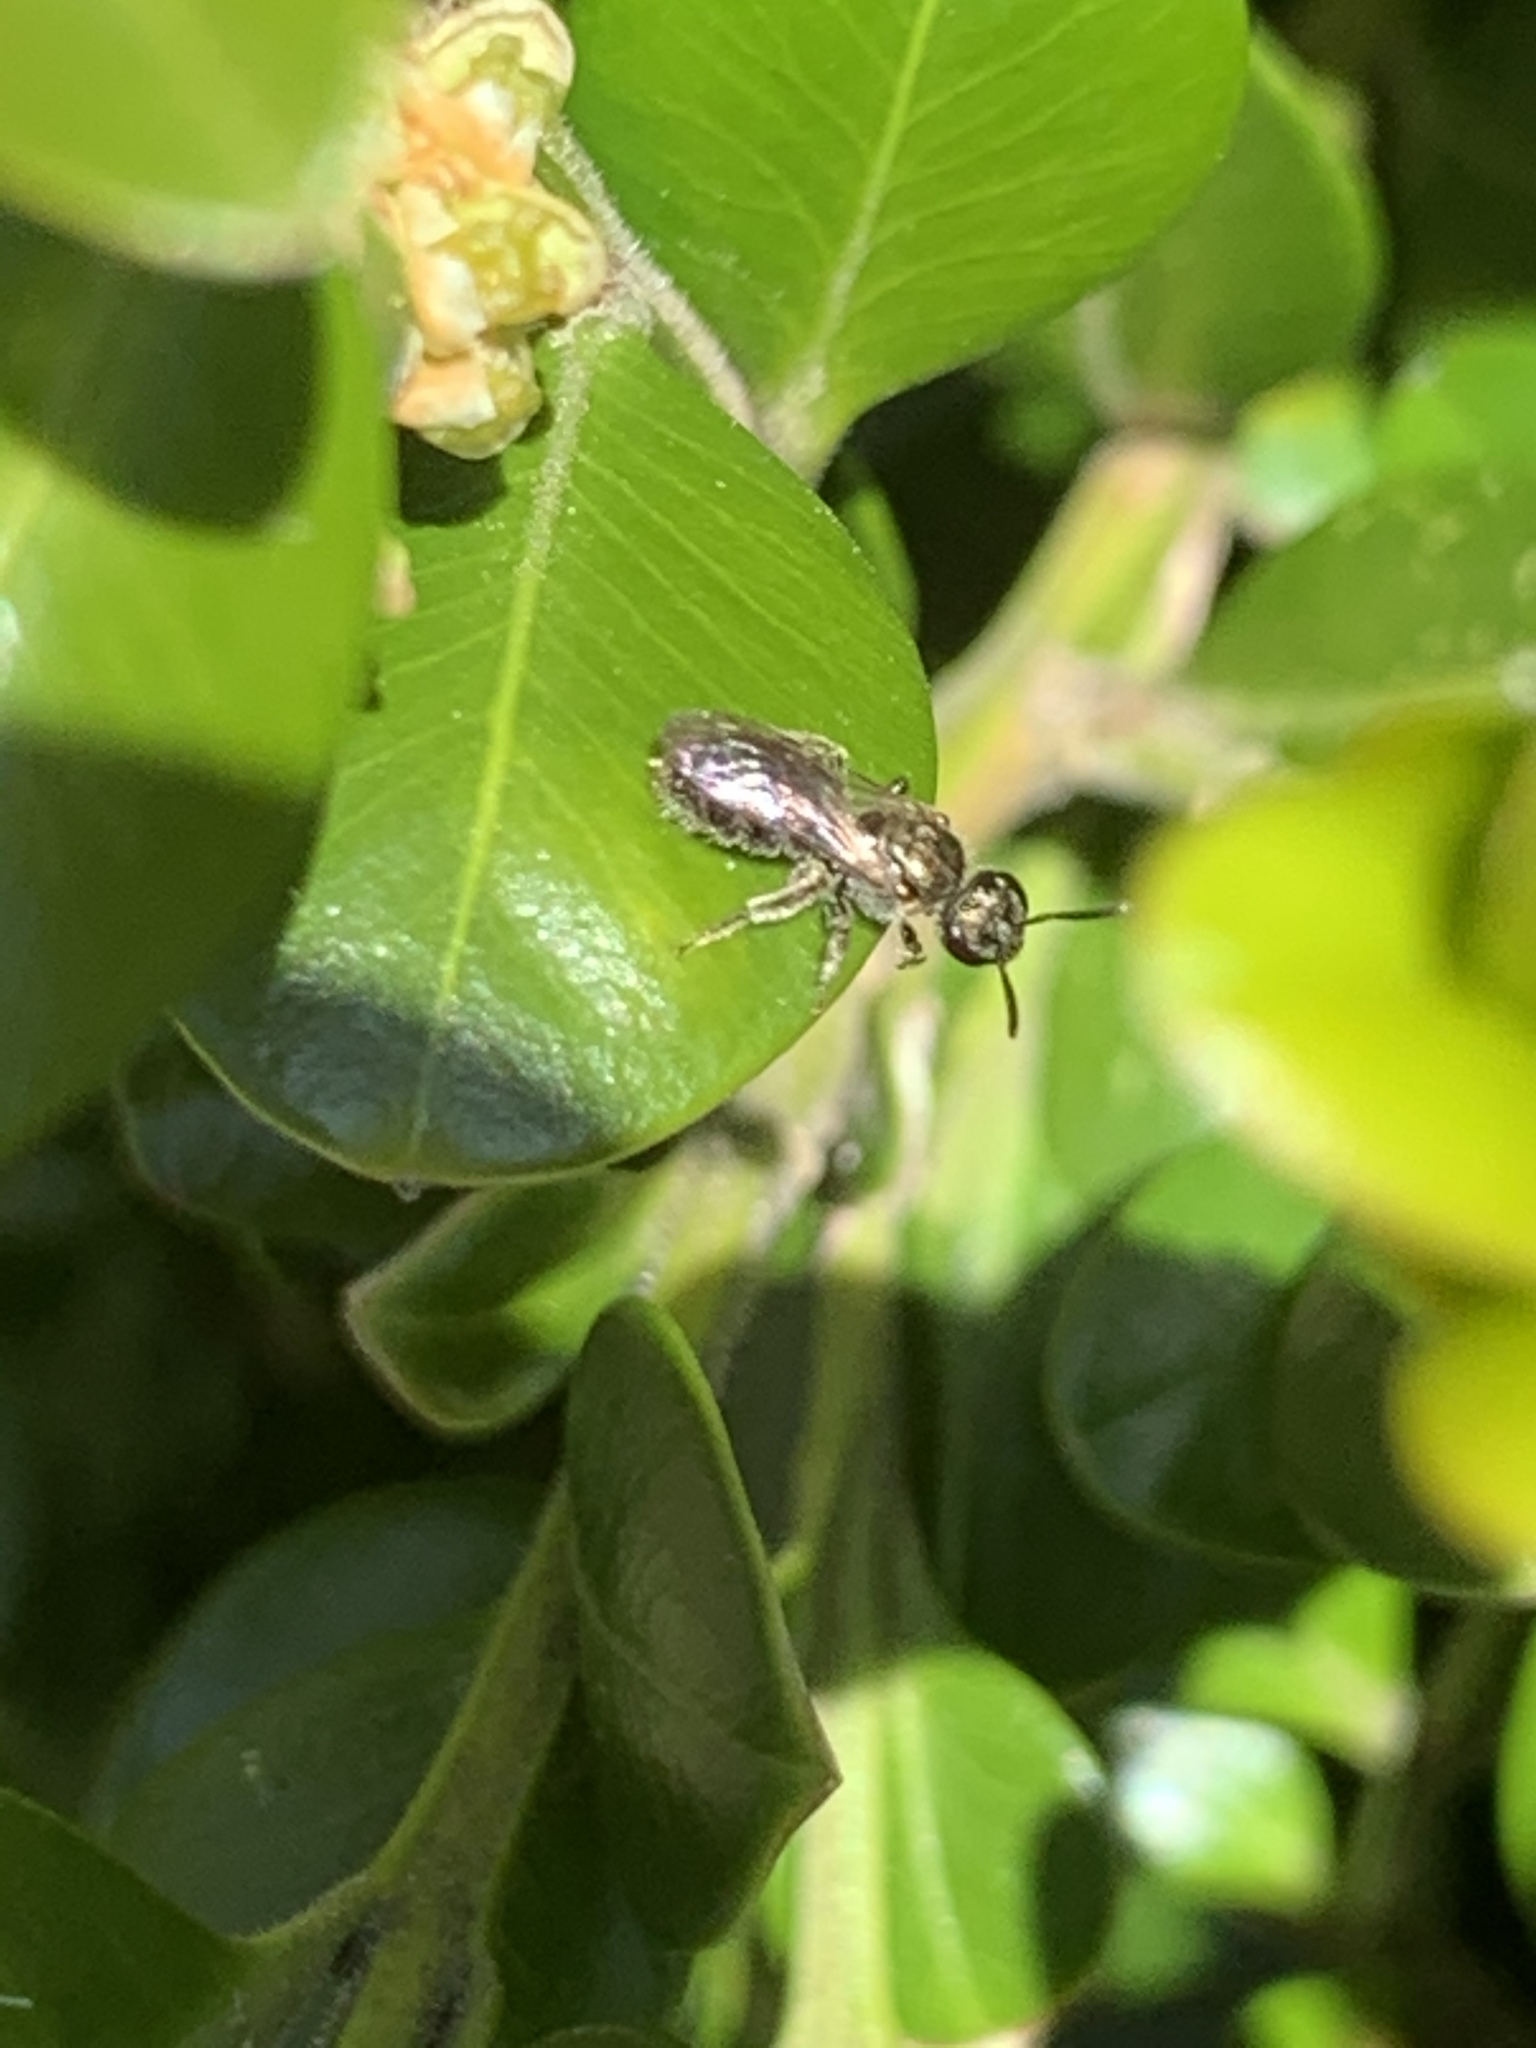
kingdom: Animalia
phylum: Arthropoda
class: Insecta
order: Hymenoptera
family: Halictidae
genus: Dialictus
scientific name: Dialictus
